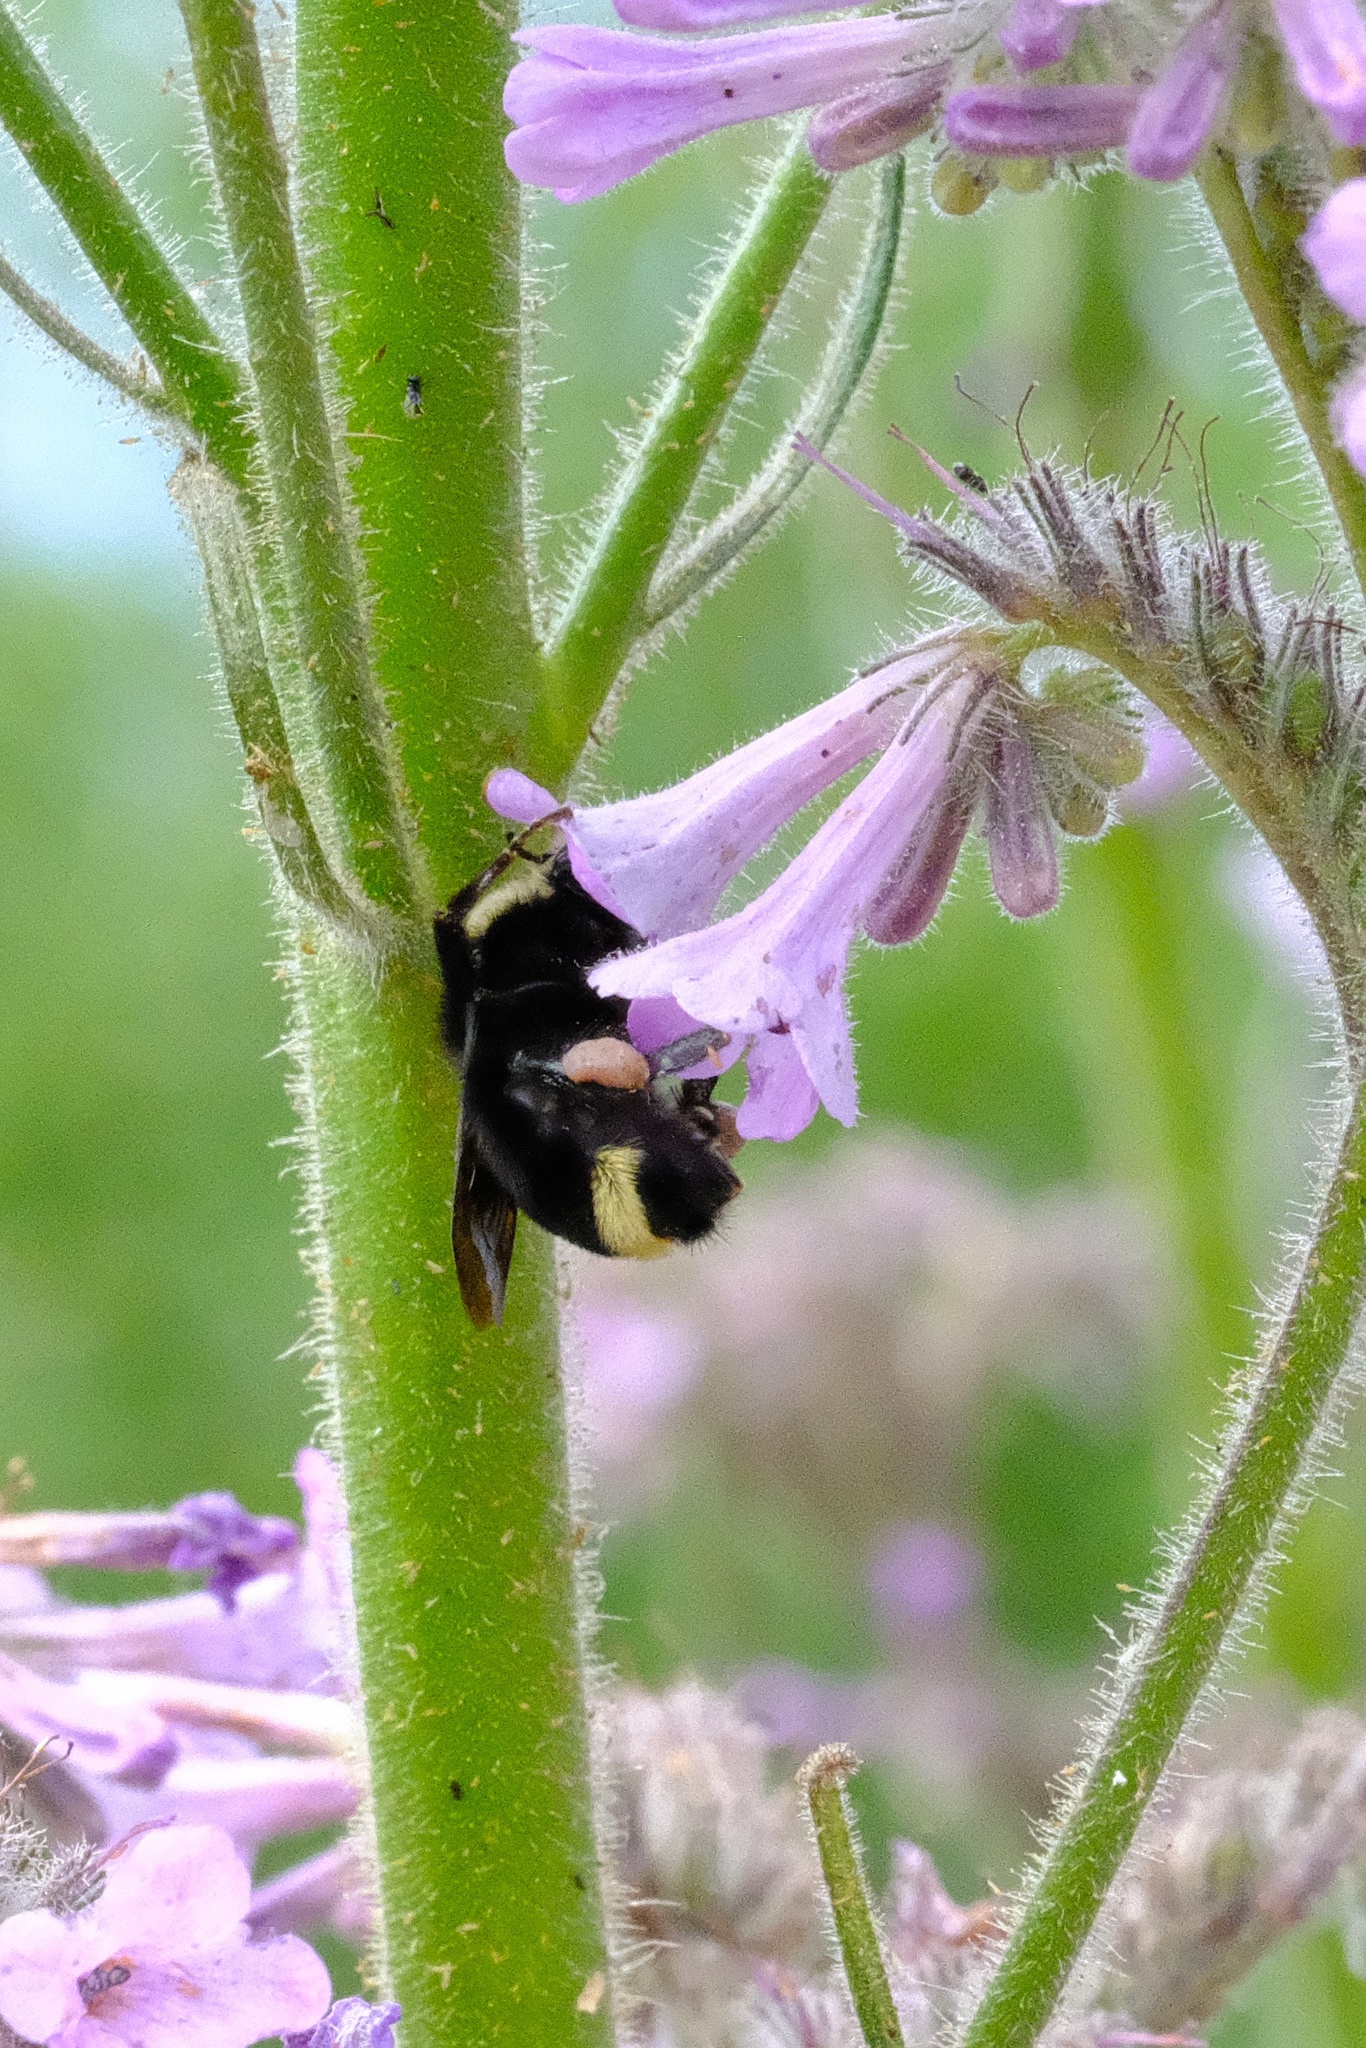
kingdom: Animalia
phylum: Arthropoda
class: Insecta
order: Hymenoptera
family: Apidae
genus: Bombus
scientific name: Bombus vosnesenskii
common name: Vosnesensky bumble bee
